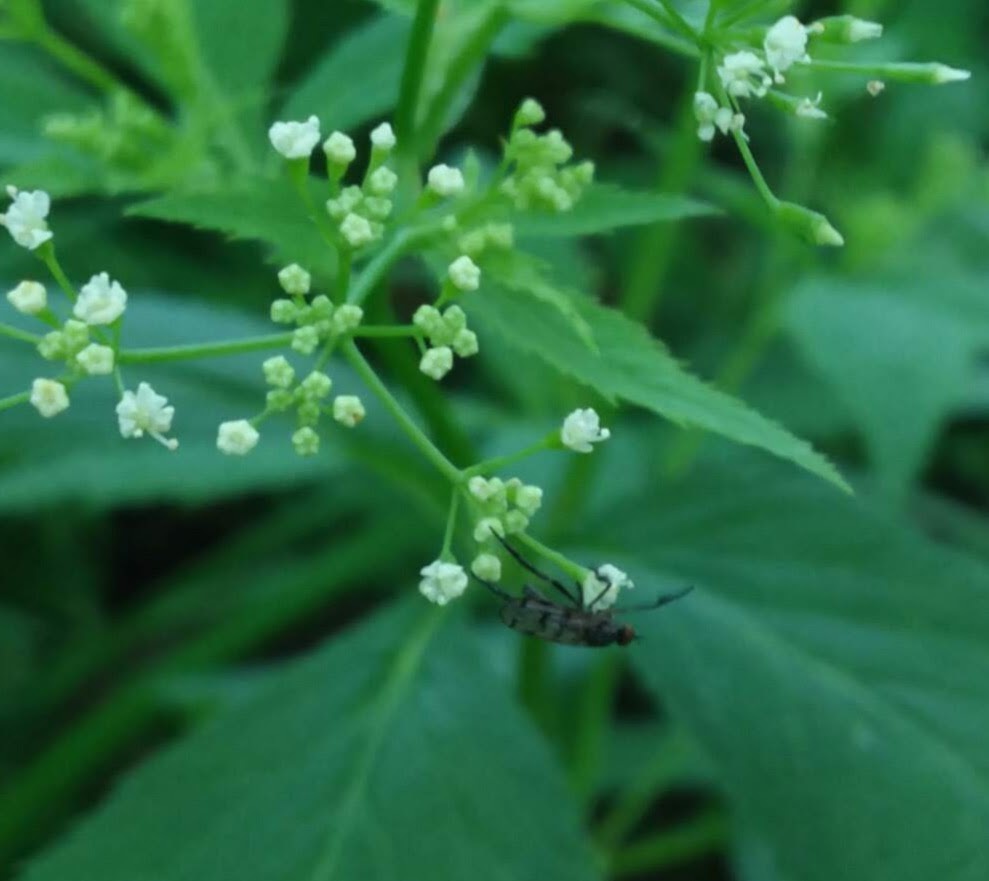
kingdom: Animalia
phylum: Arthropoda
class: Insecta
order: Diptera
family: Empididae
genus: Empis
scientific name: Empis clausa
